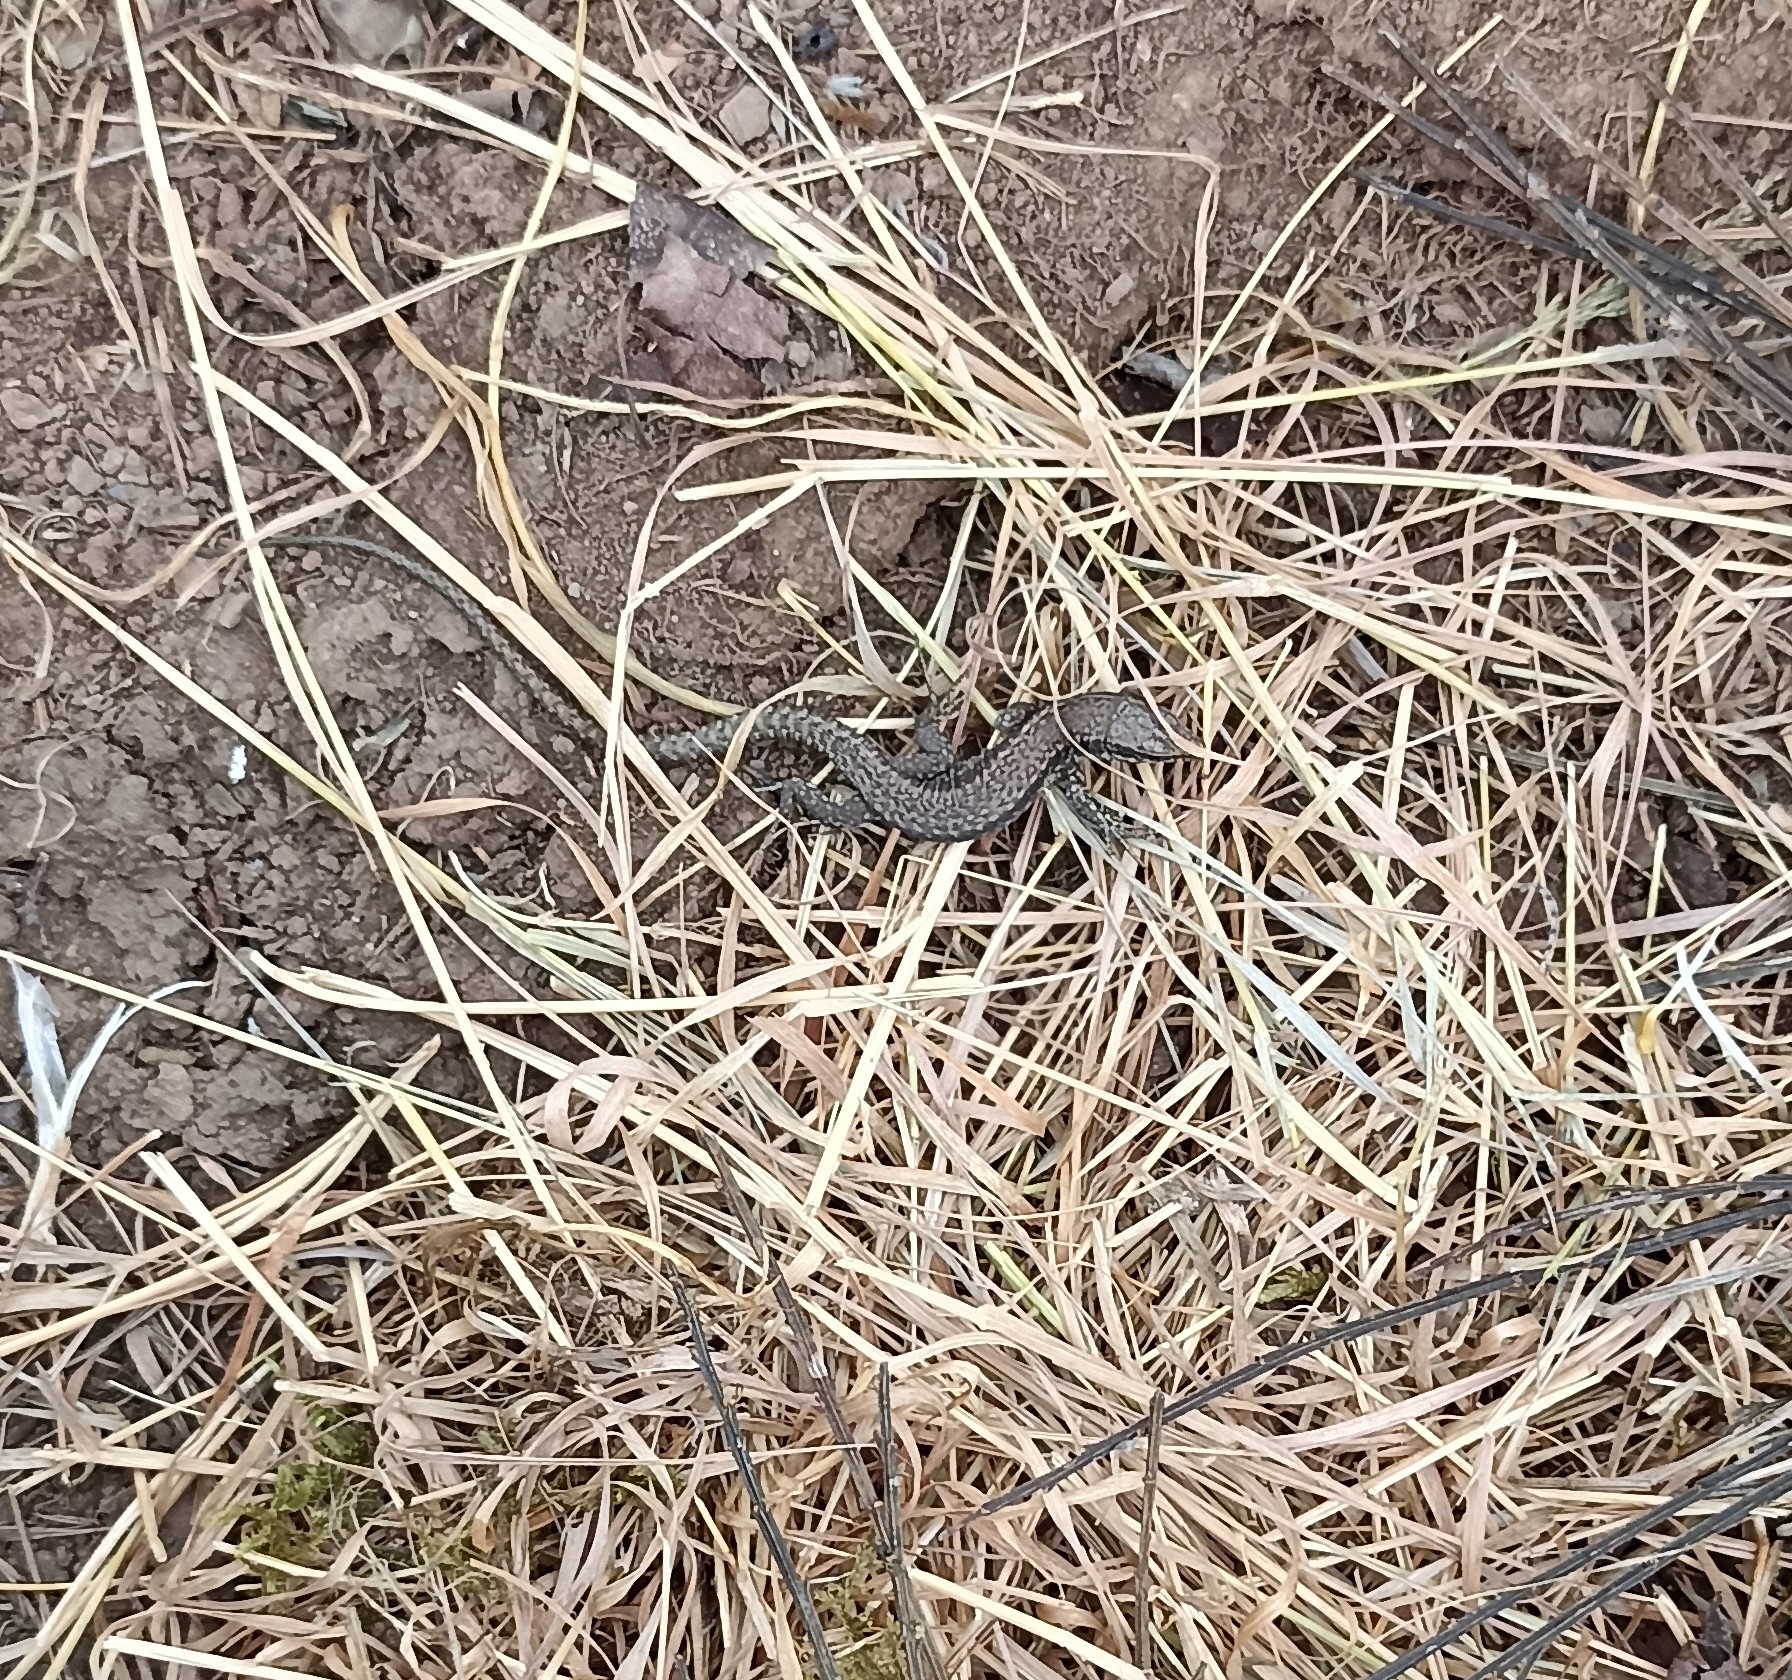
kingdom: Animalia
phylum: Chordata
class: Squamata
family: Lacertidae
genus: Podarcis
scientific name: Podarcis muralis
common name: Common wall lizard
